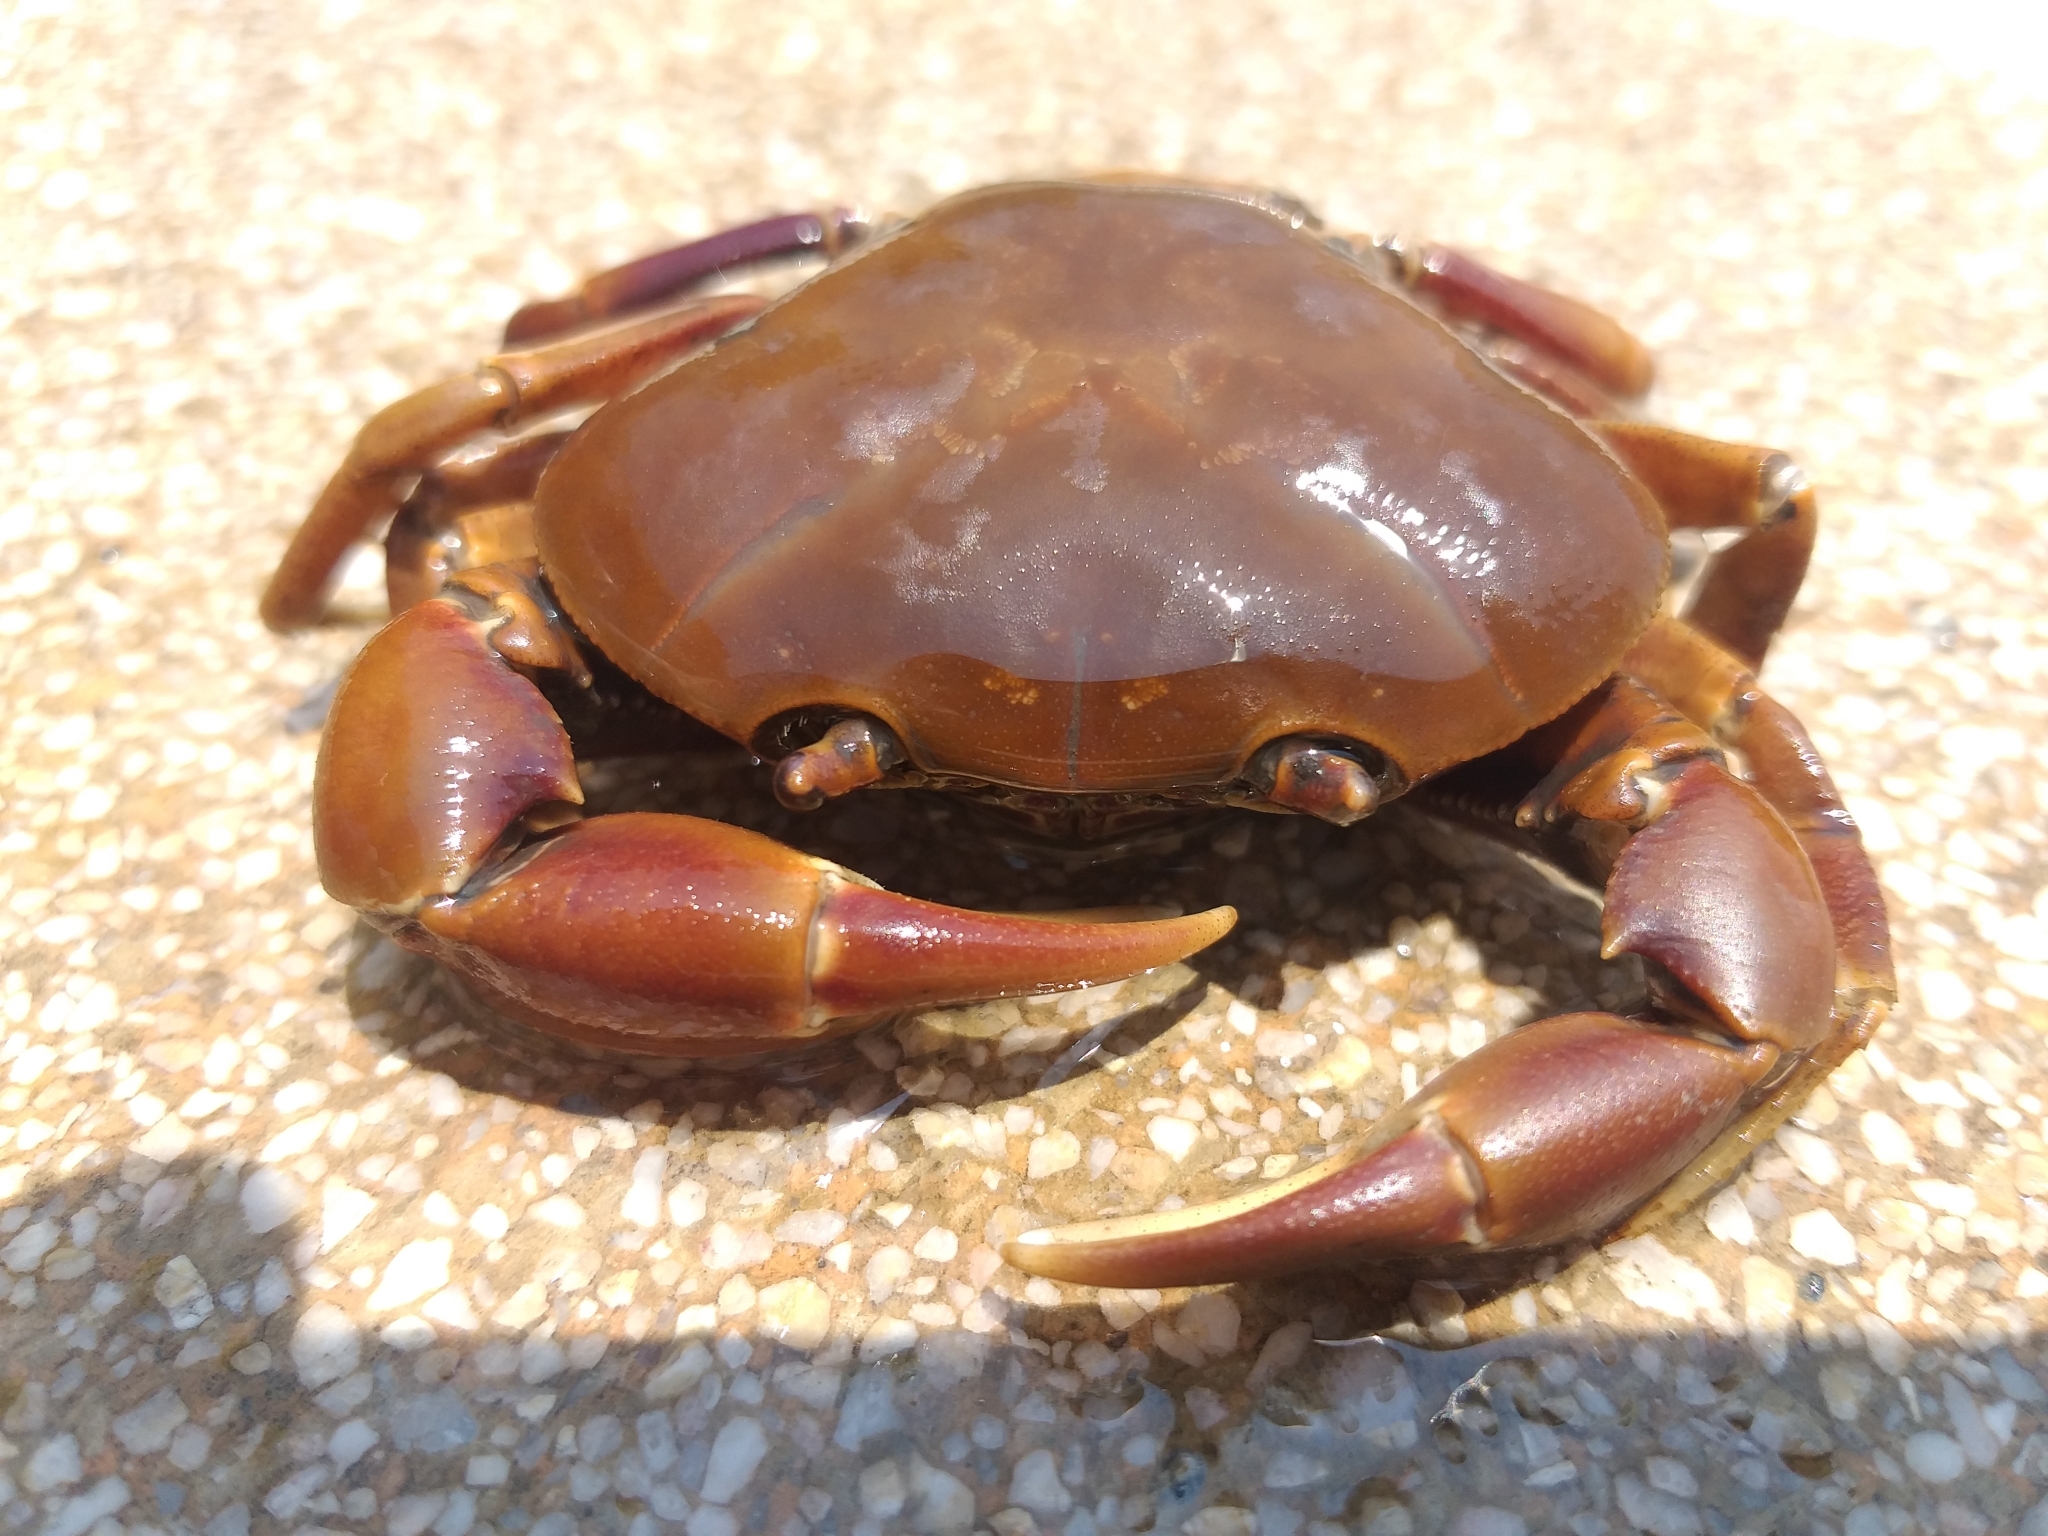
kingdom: Animalia
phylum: Arthropoda
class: Malacostraca
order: Decapoda
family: Pseudothelphusidae
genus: Pseudothelphusa
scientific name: Pseudothelphusa morelosis
